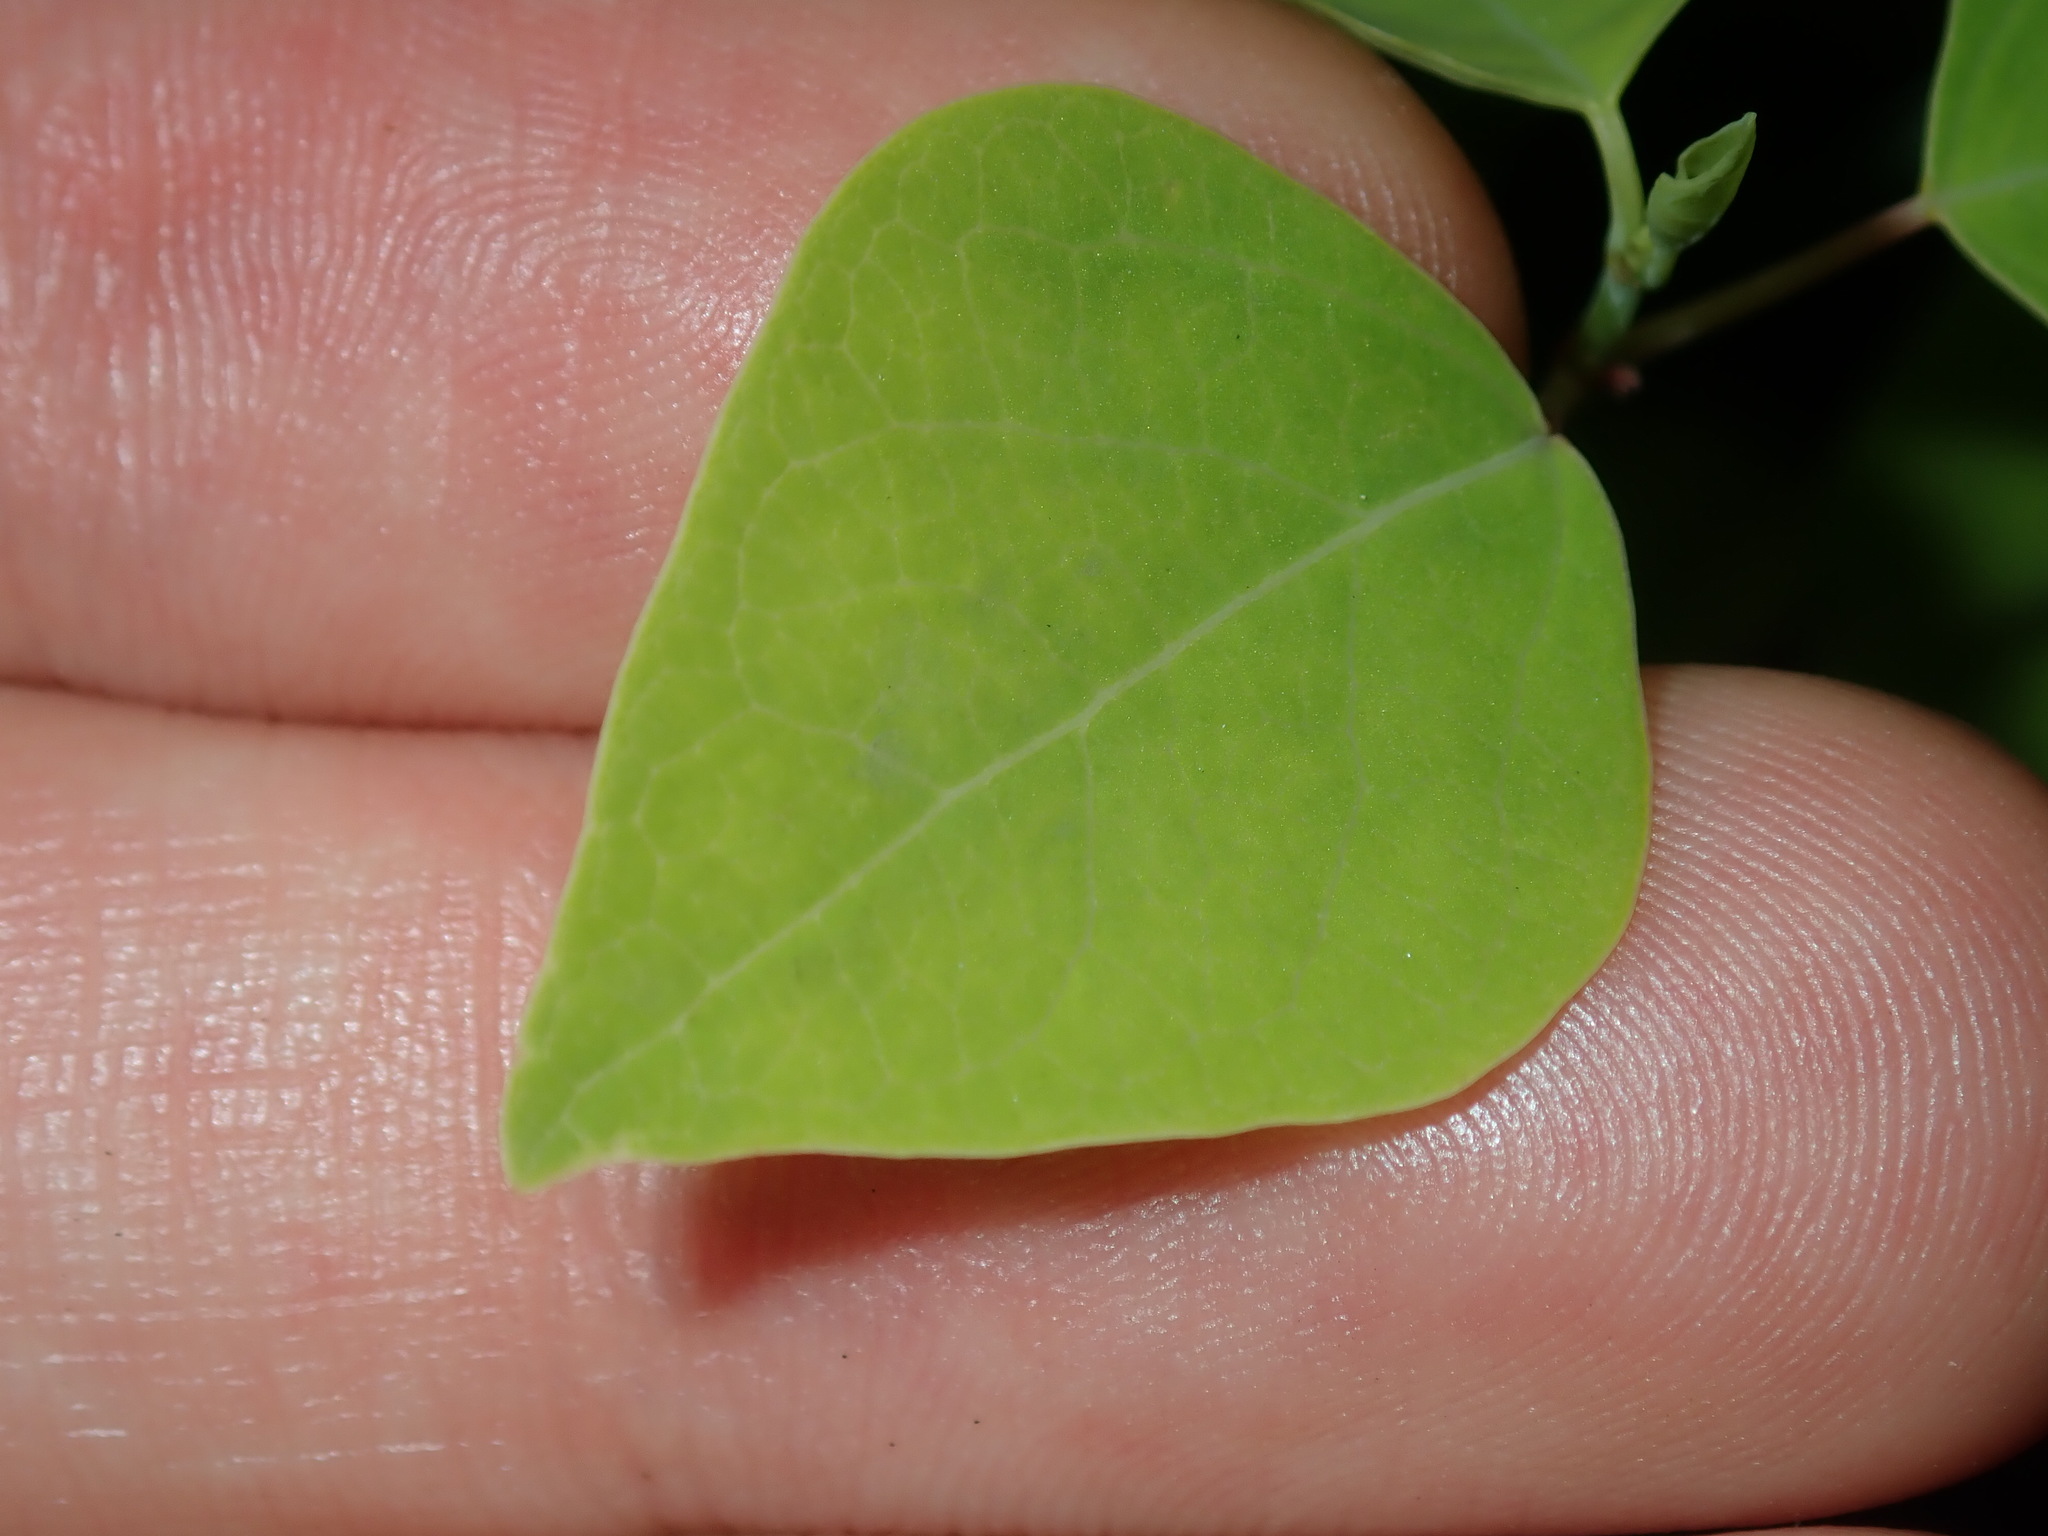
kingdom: Plantae
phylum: Tracheophyta
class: Magnoliopsida
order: Malpighiales
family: Euphorbiaceae
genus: Homalanthus
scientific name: Homalanthus populifolius
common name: Queensland poplar
